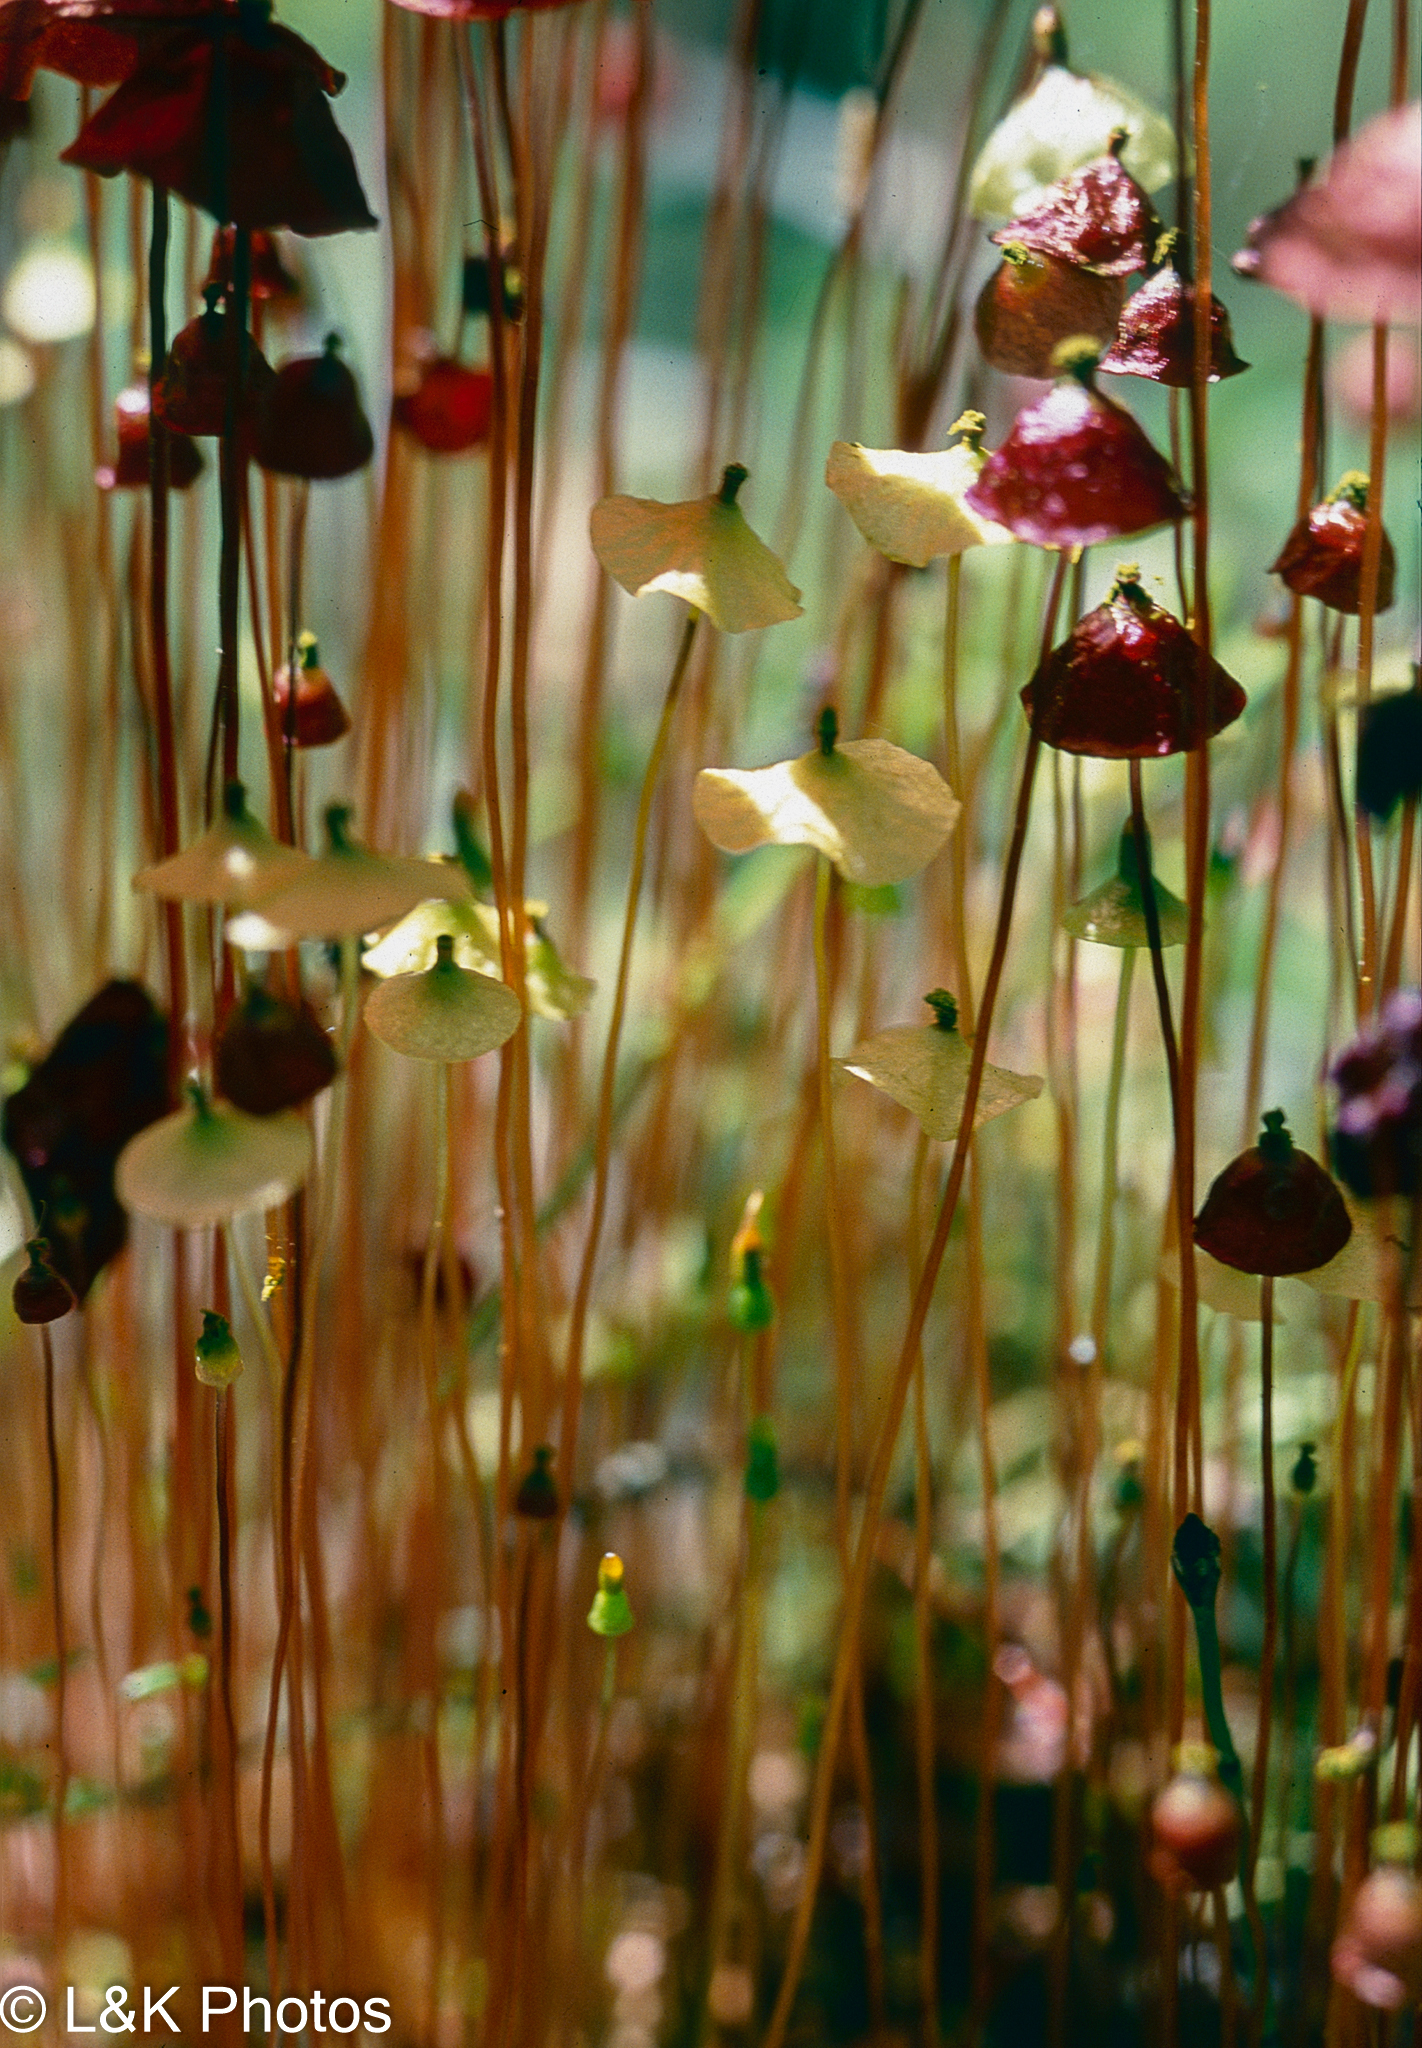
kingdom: Plantae
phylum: Bryophyta
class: Bryopsida
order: Splachnales
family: Splachnaceae
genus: Splachnum
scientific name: Splachnum luteum
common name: Yellow dung moss
